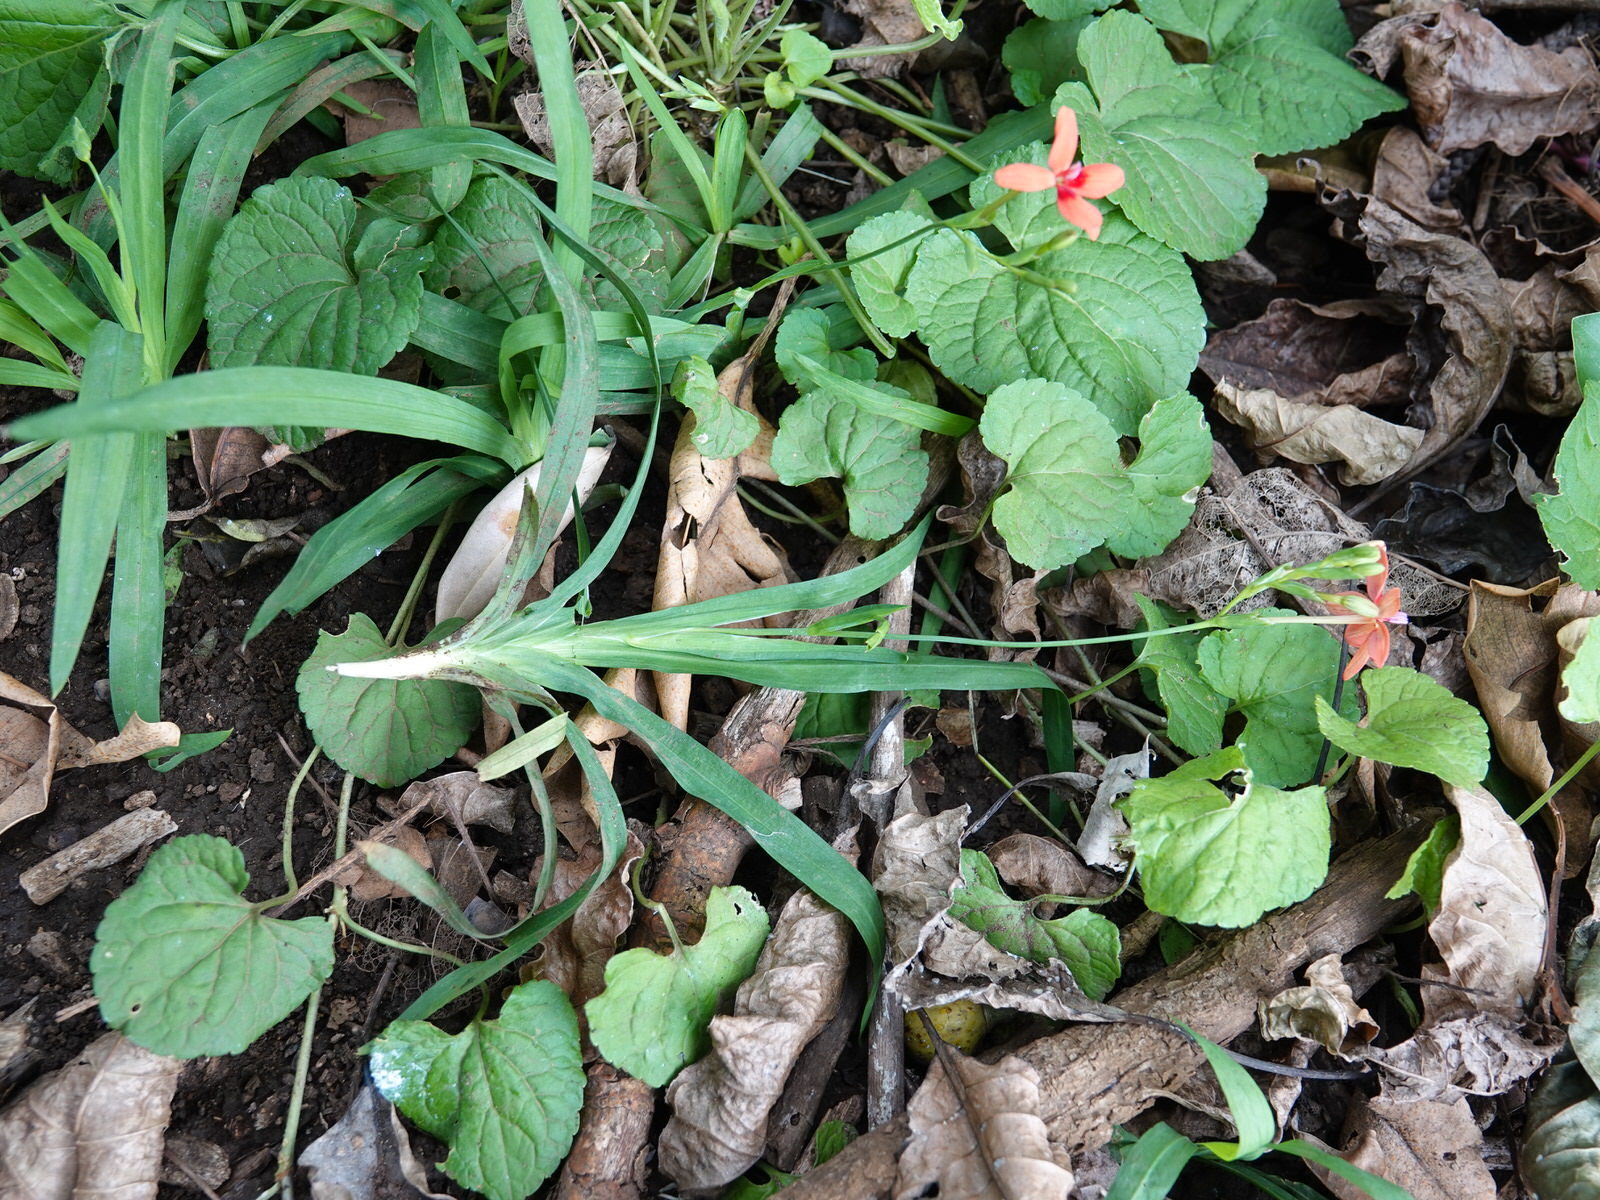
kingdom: Plantae
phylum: Tracheophyta
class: Liliopsida
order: Asparagales
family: Iridaceae
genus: Freesia
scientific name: Freesia laxa
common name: False freesia
